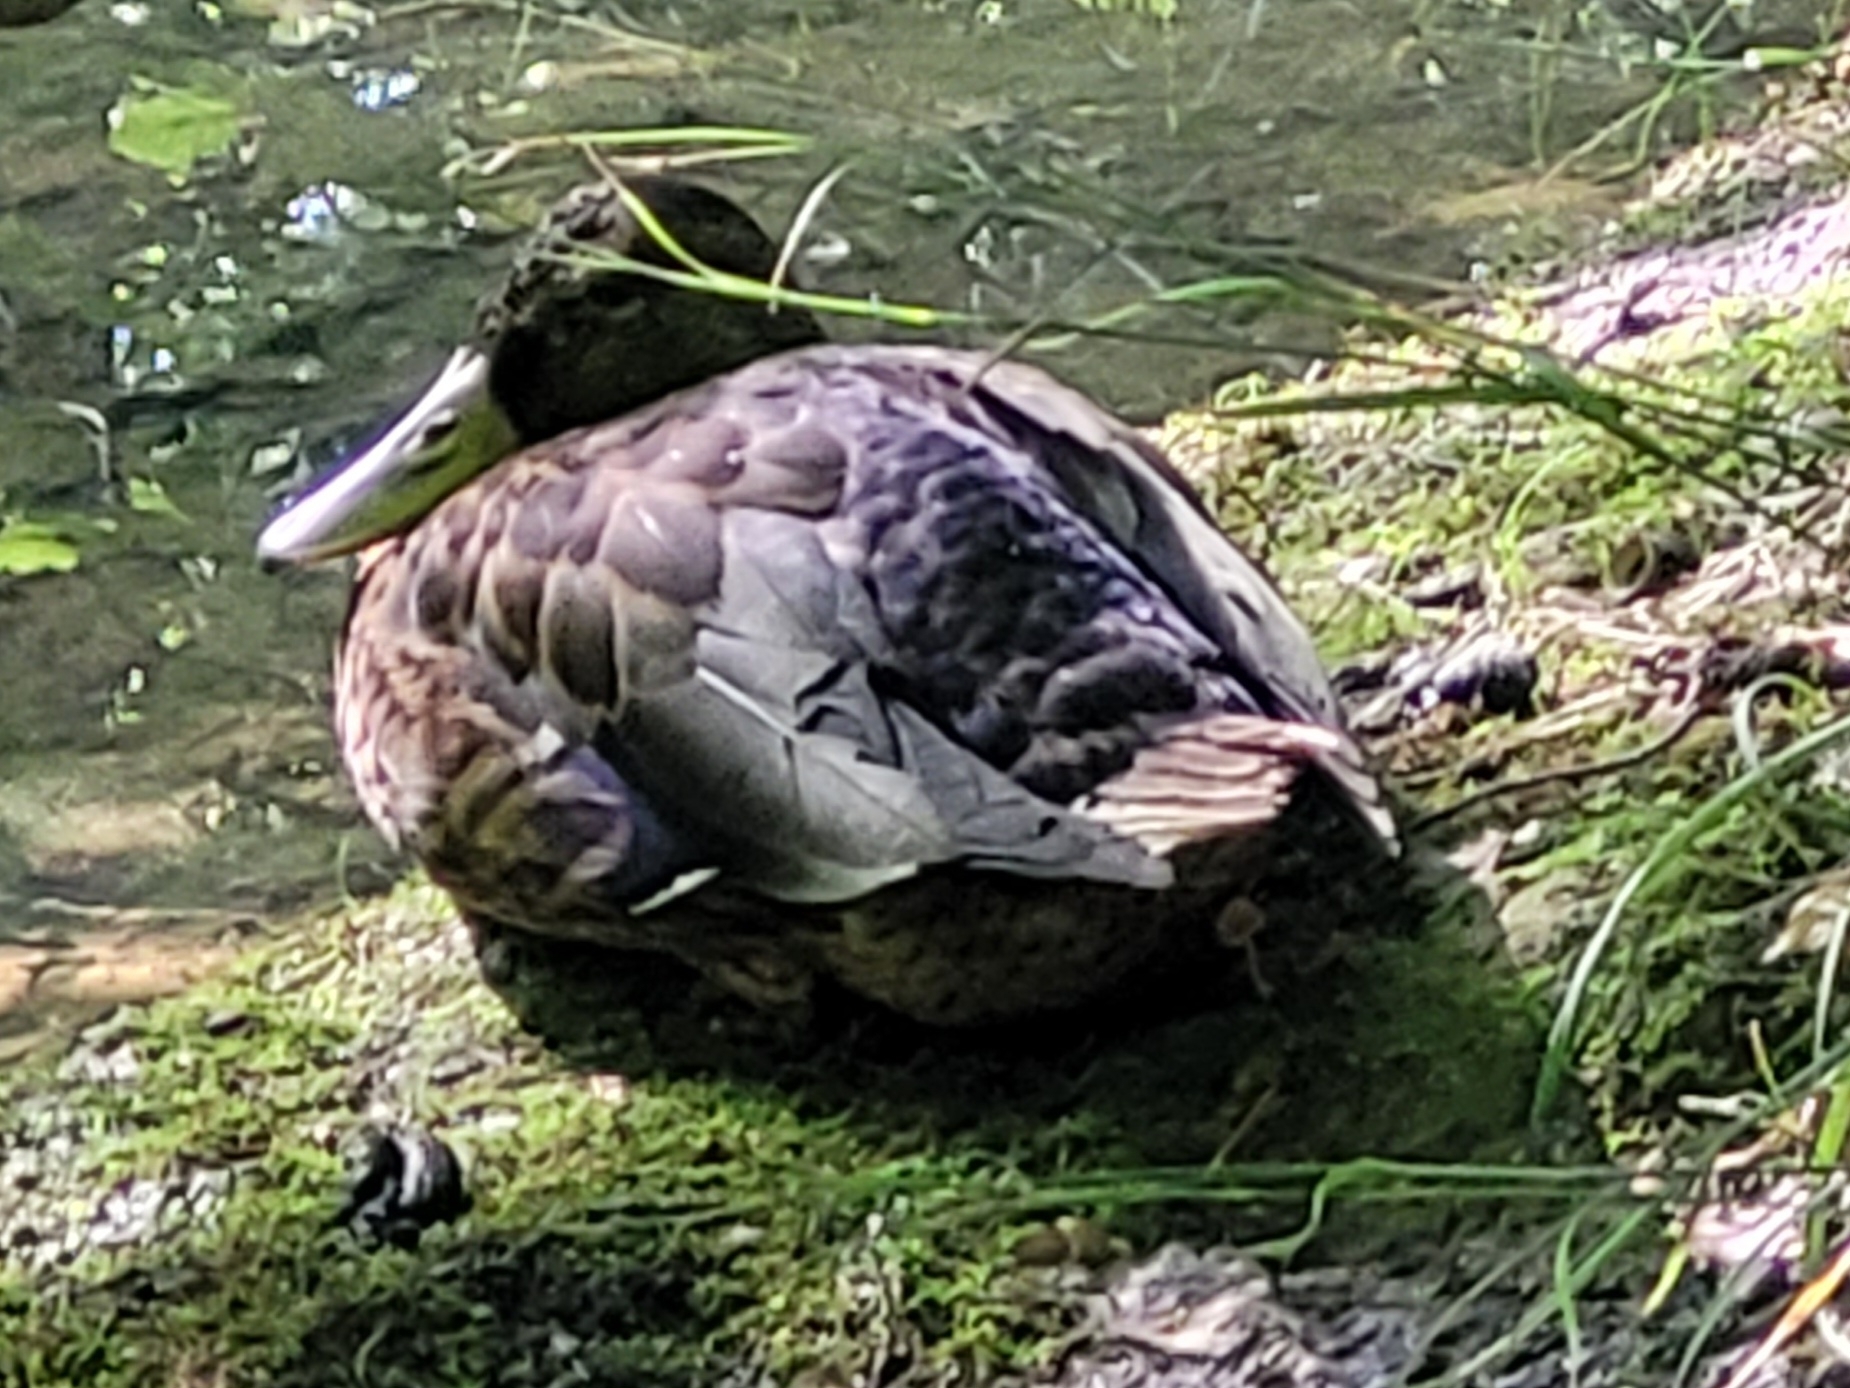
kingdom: Animalia
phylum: Chordata
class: Aves
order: Anseriformes
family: Anatidae
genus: Anas
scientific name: Anas platyrhynchos
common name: Mallard
